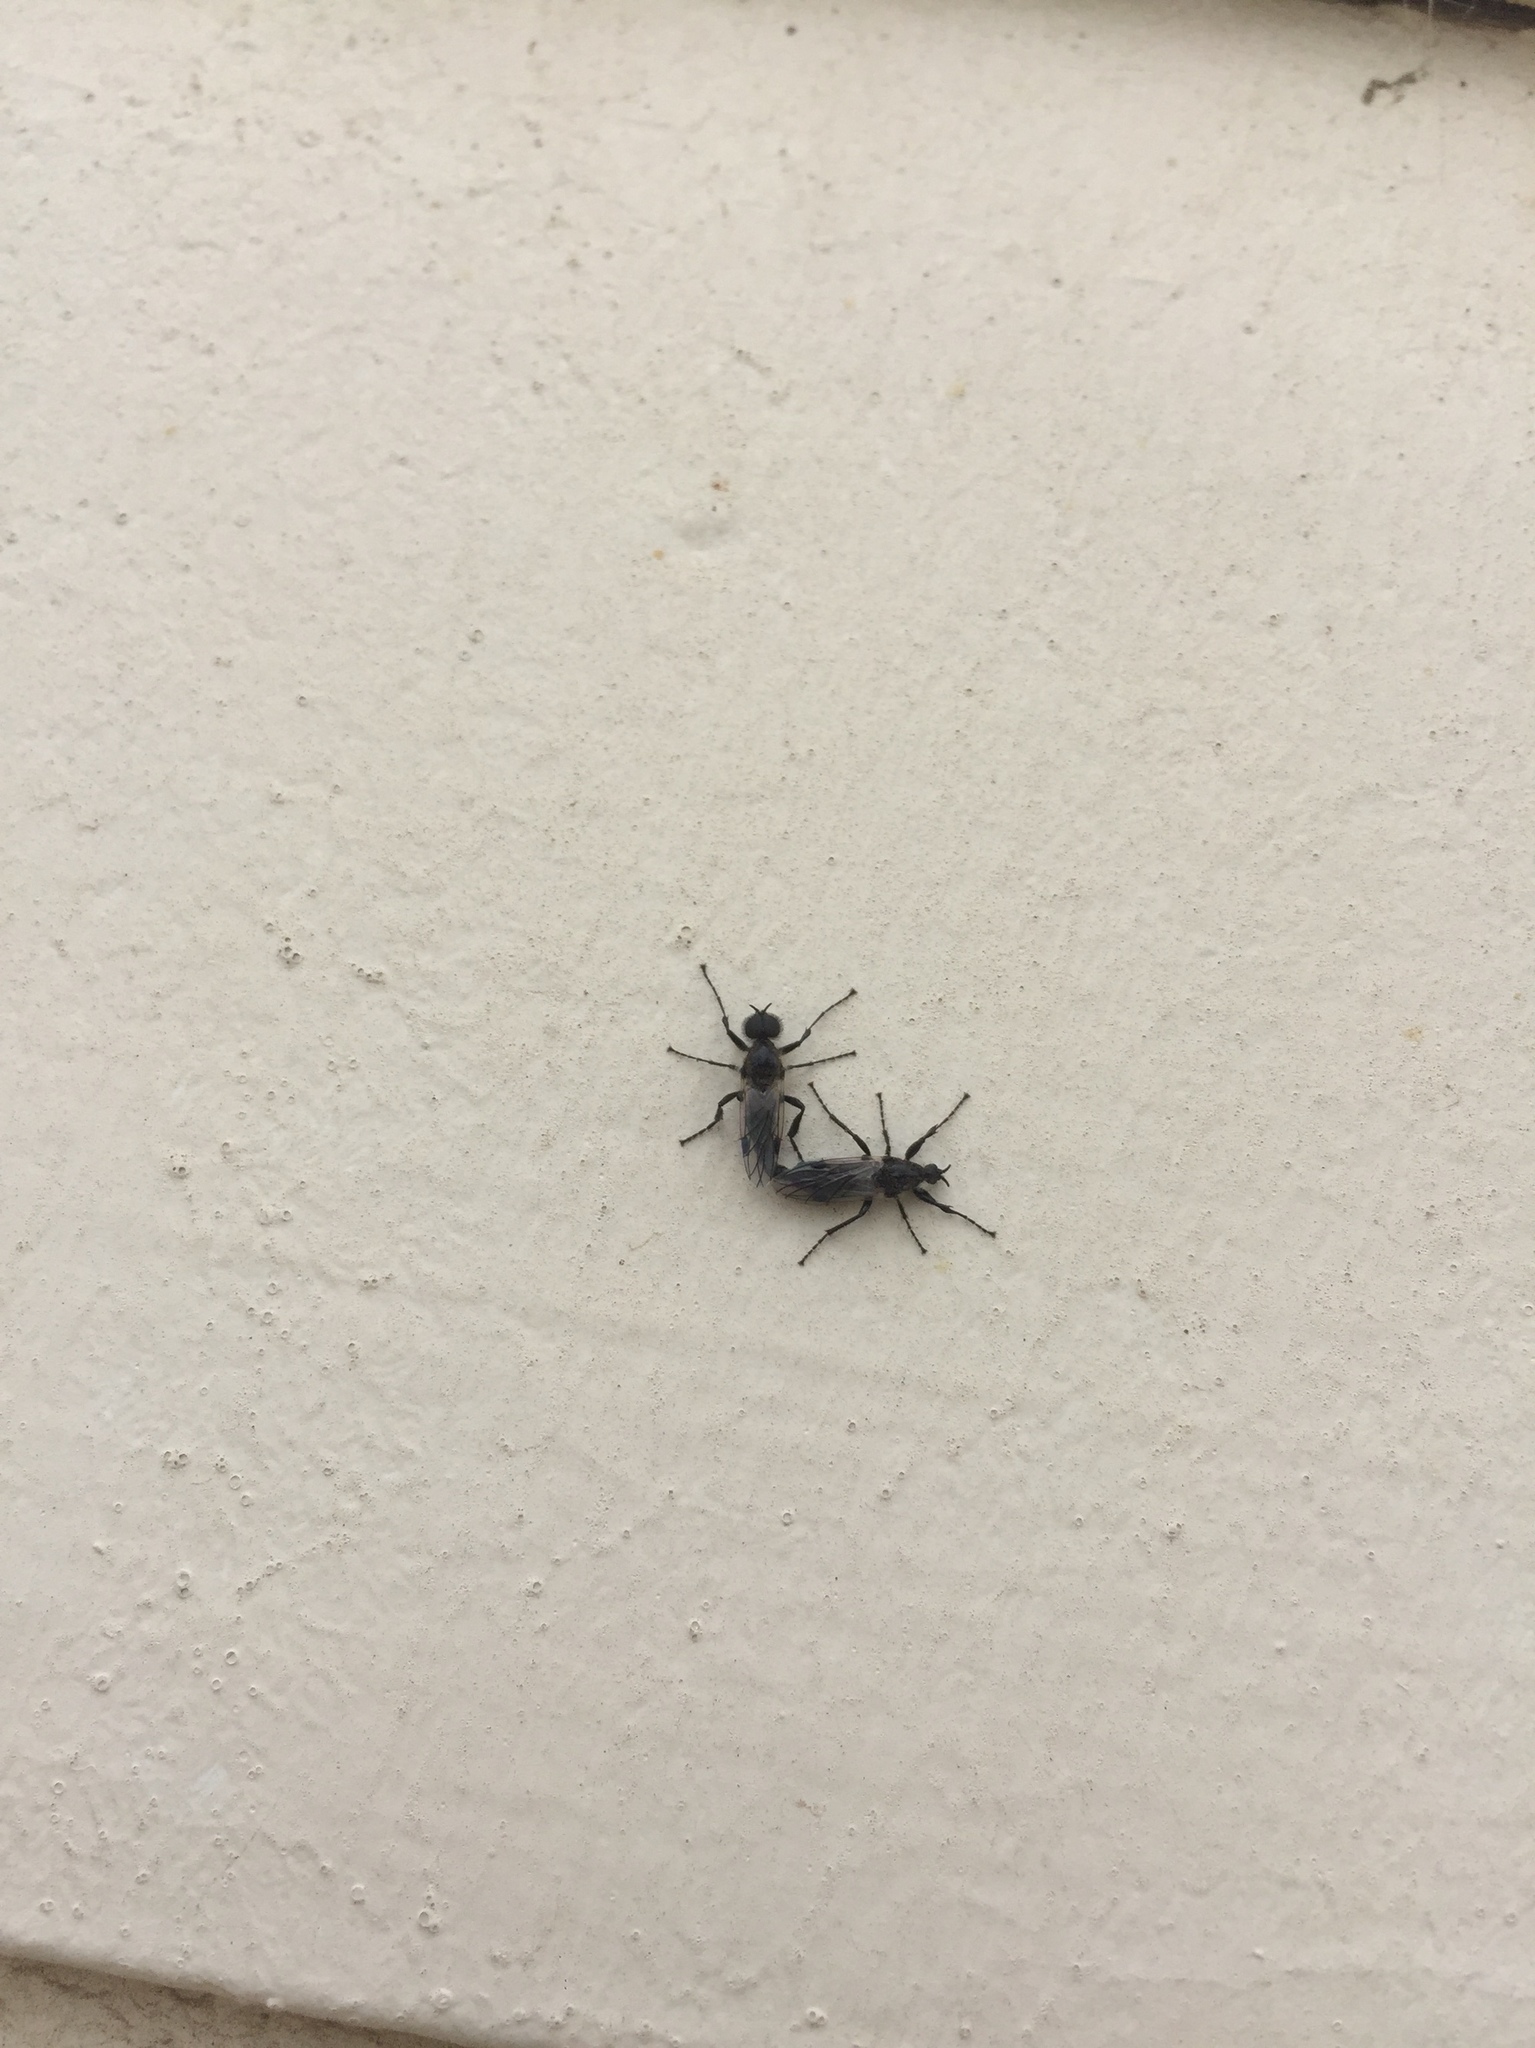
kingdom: Animalia
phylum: Arthropoda
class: Insecta
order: Diptera
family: Bibionidae
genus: Bibio
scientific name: Bibio albipennis
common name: White-winged march fly
